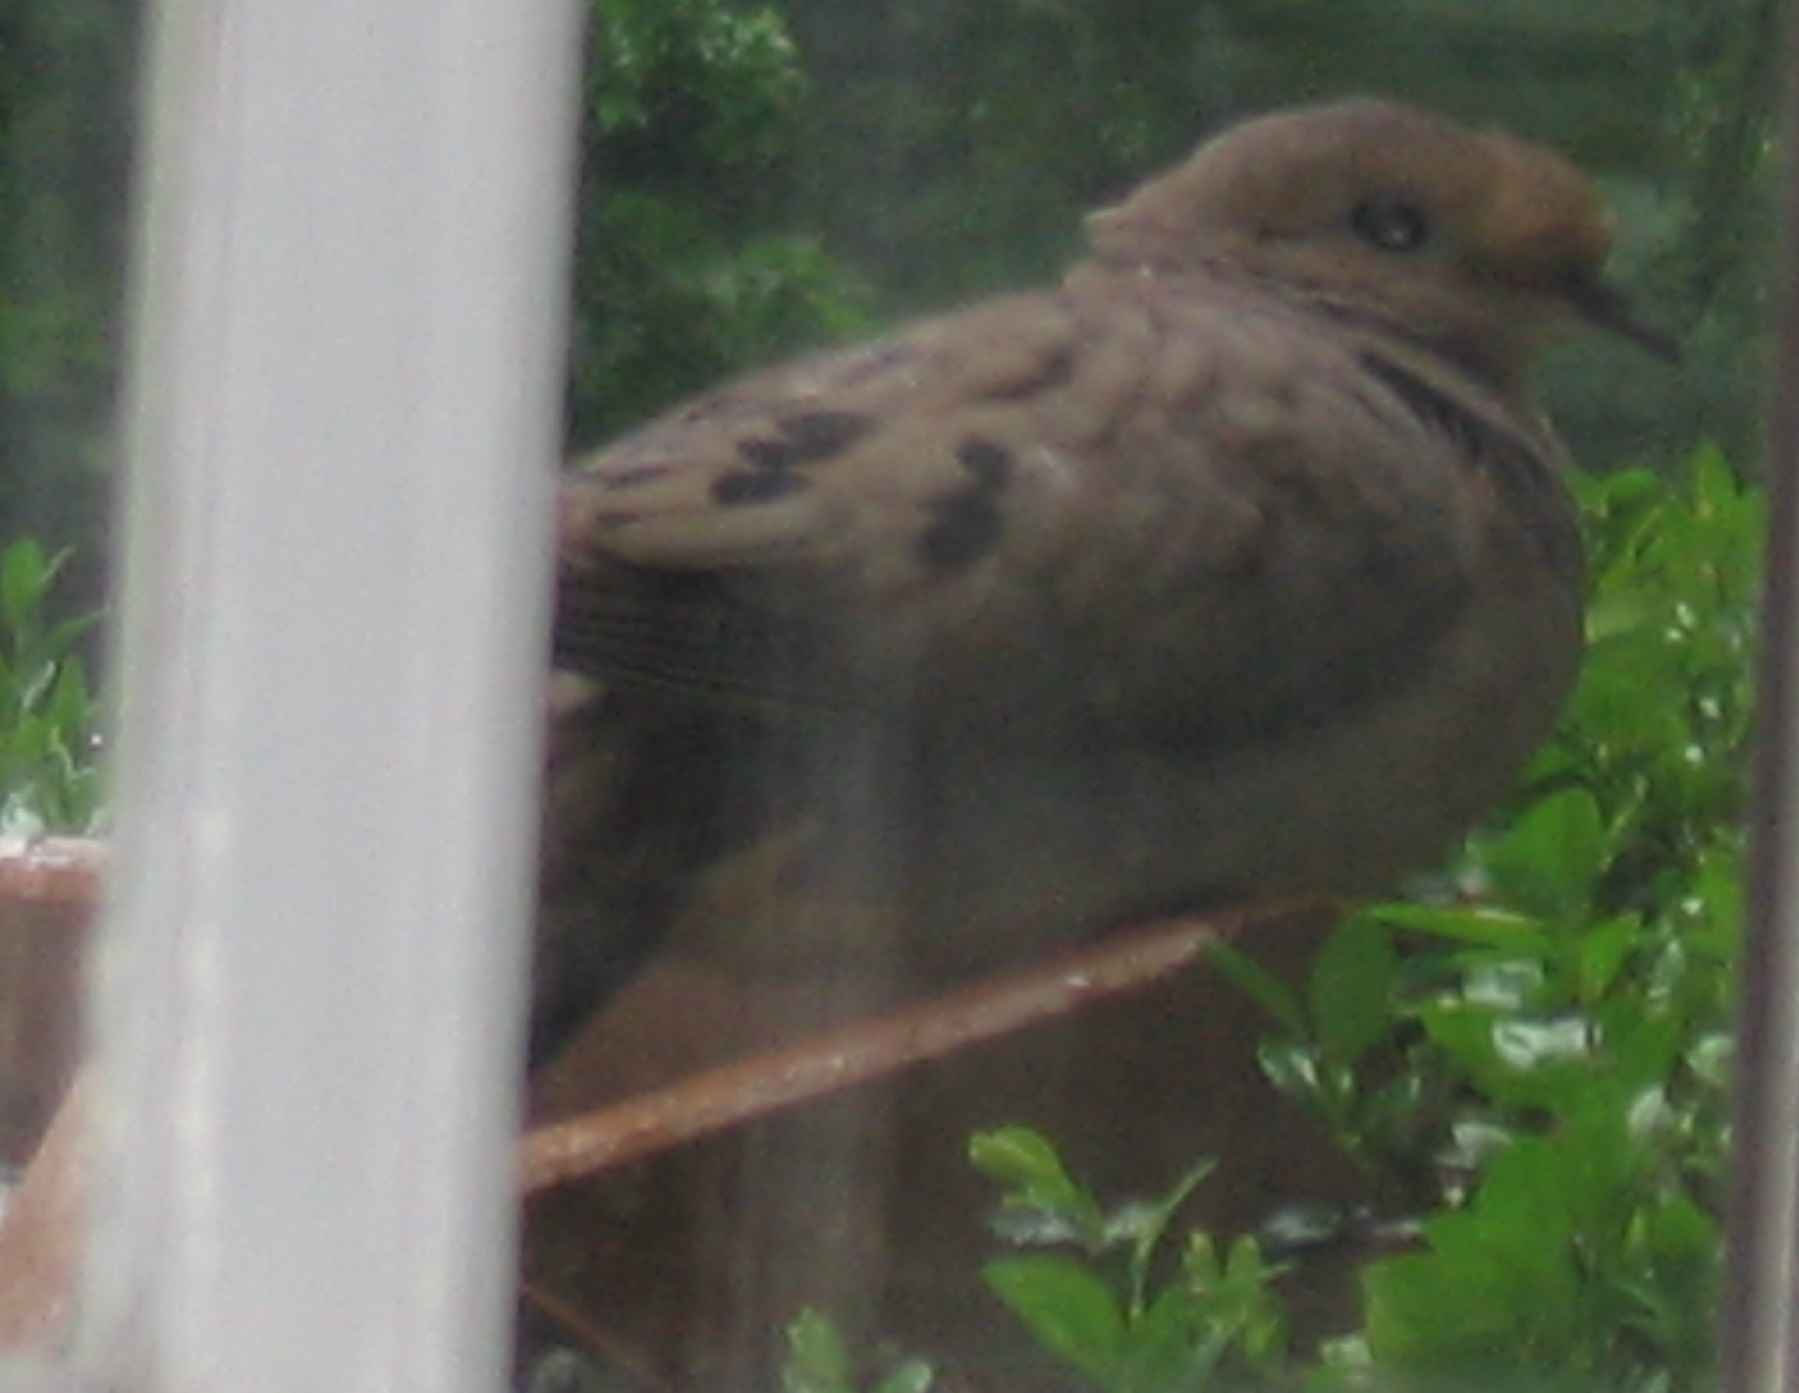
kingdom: Animalia
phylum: Chordata
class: Aves
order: Columbiformes
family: Columbidae
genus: Zenaida
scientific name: Zenaida macroura
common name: Mourning dove
